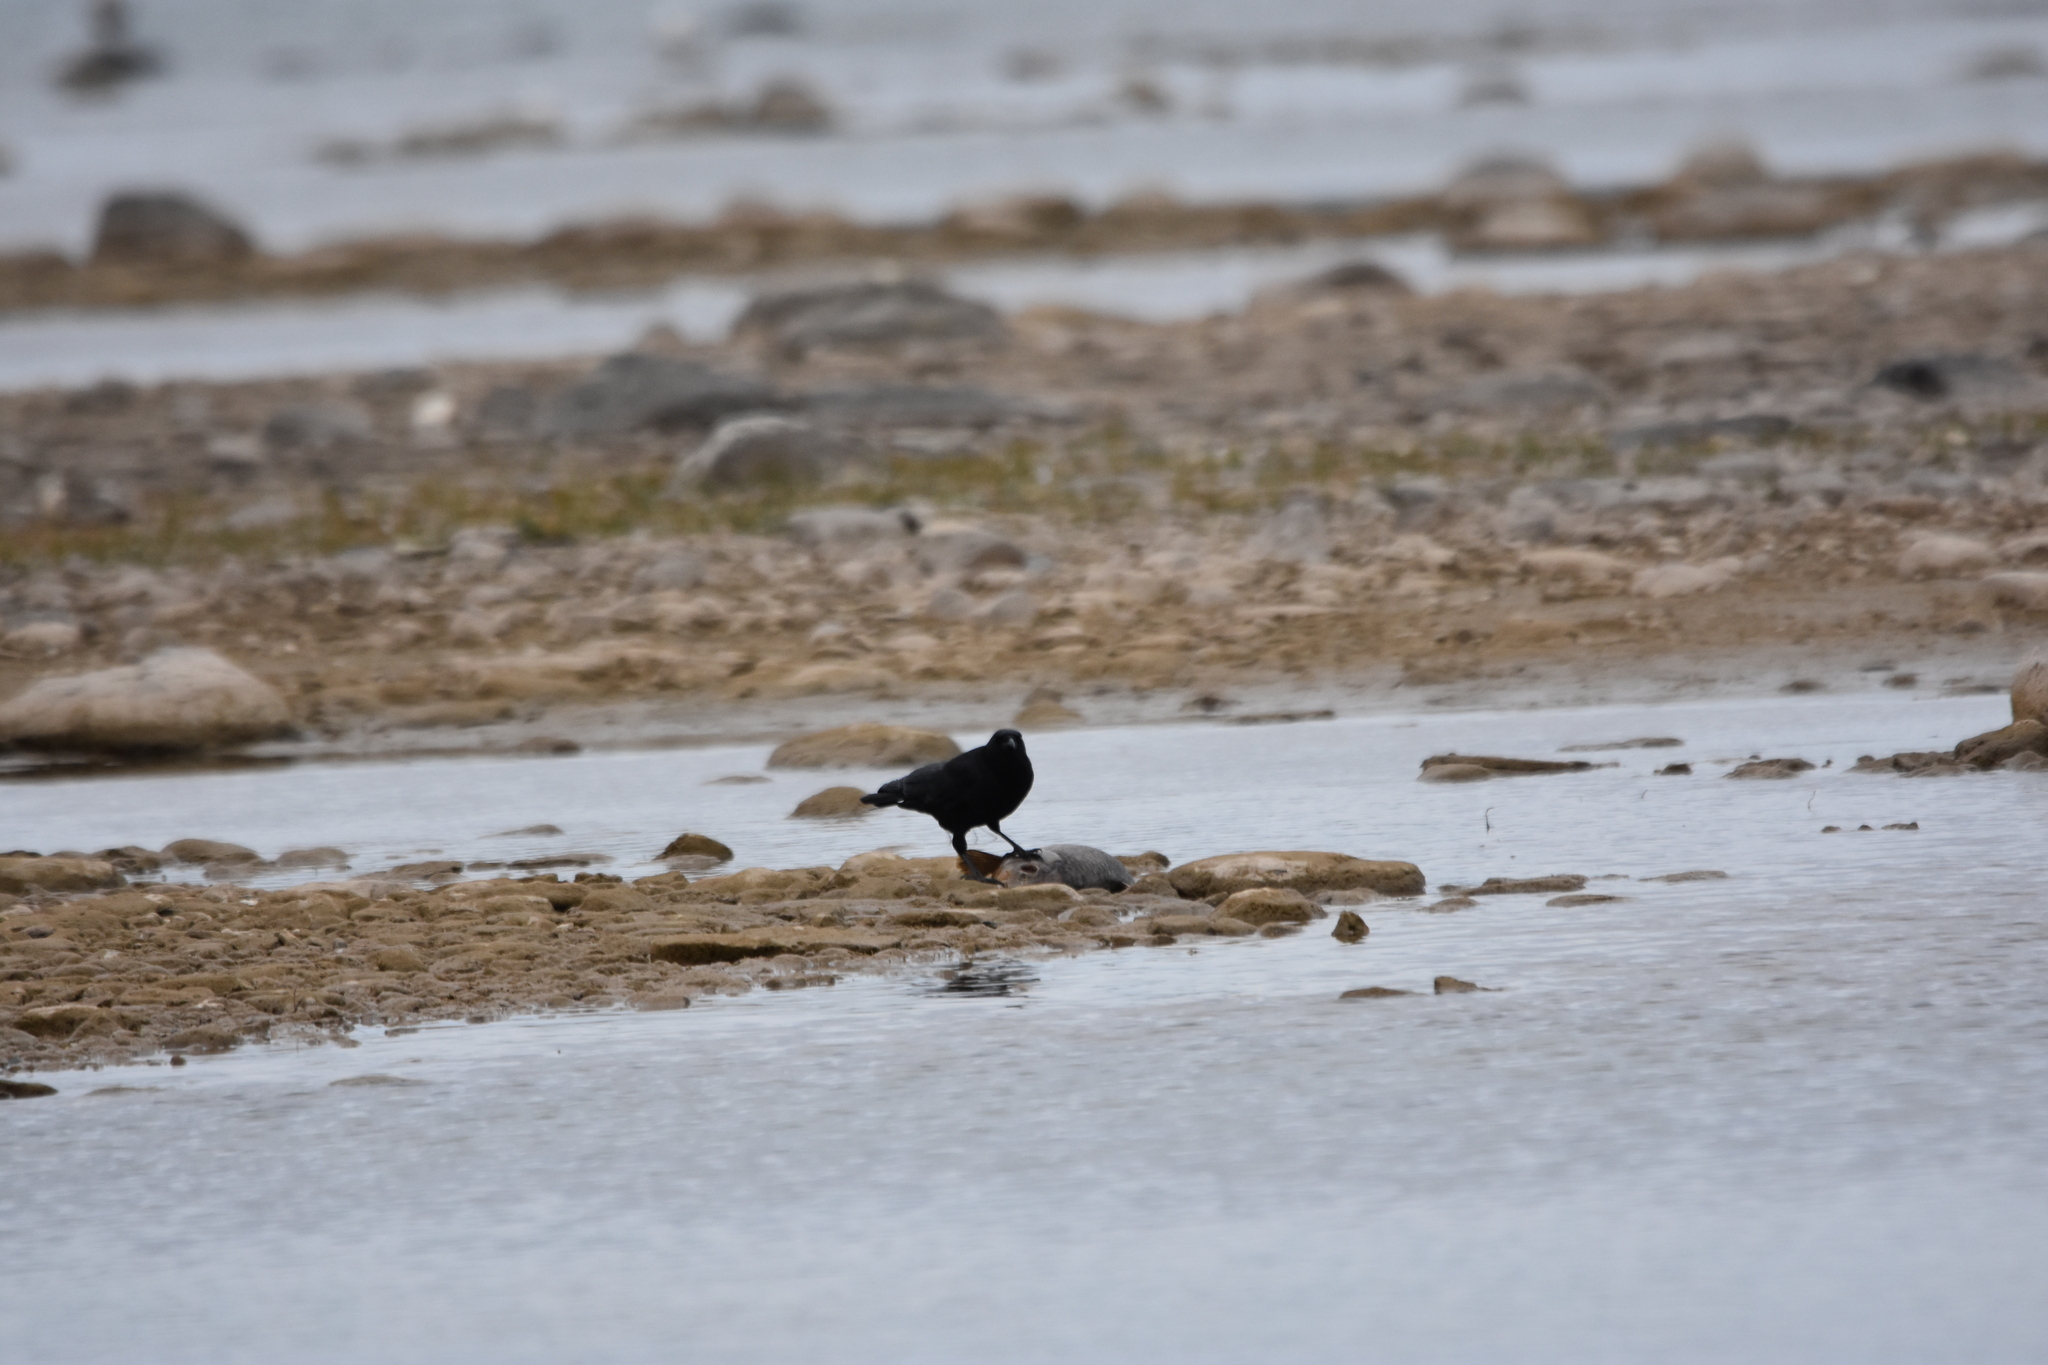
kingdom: Animalia
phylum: Chordata
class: Aves
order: Passeriformes
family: Corvidae
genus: Corvus
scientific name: Corvus brachyrhynchos
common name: American crow
